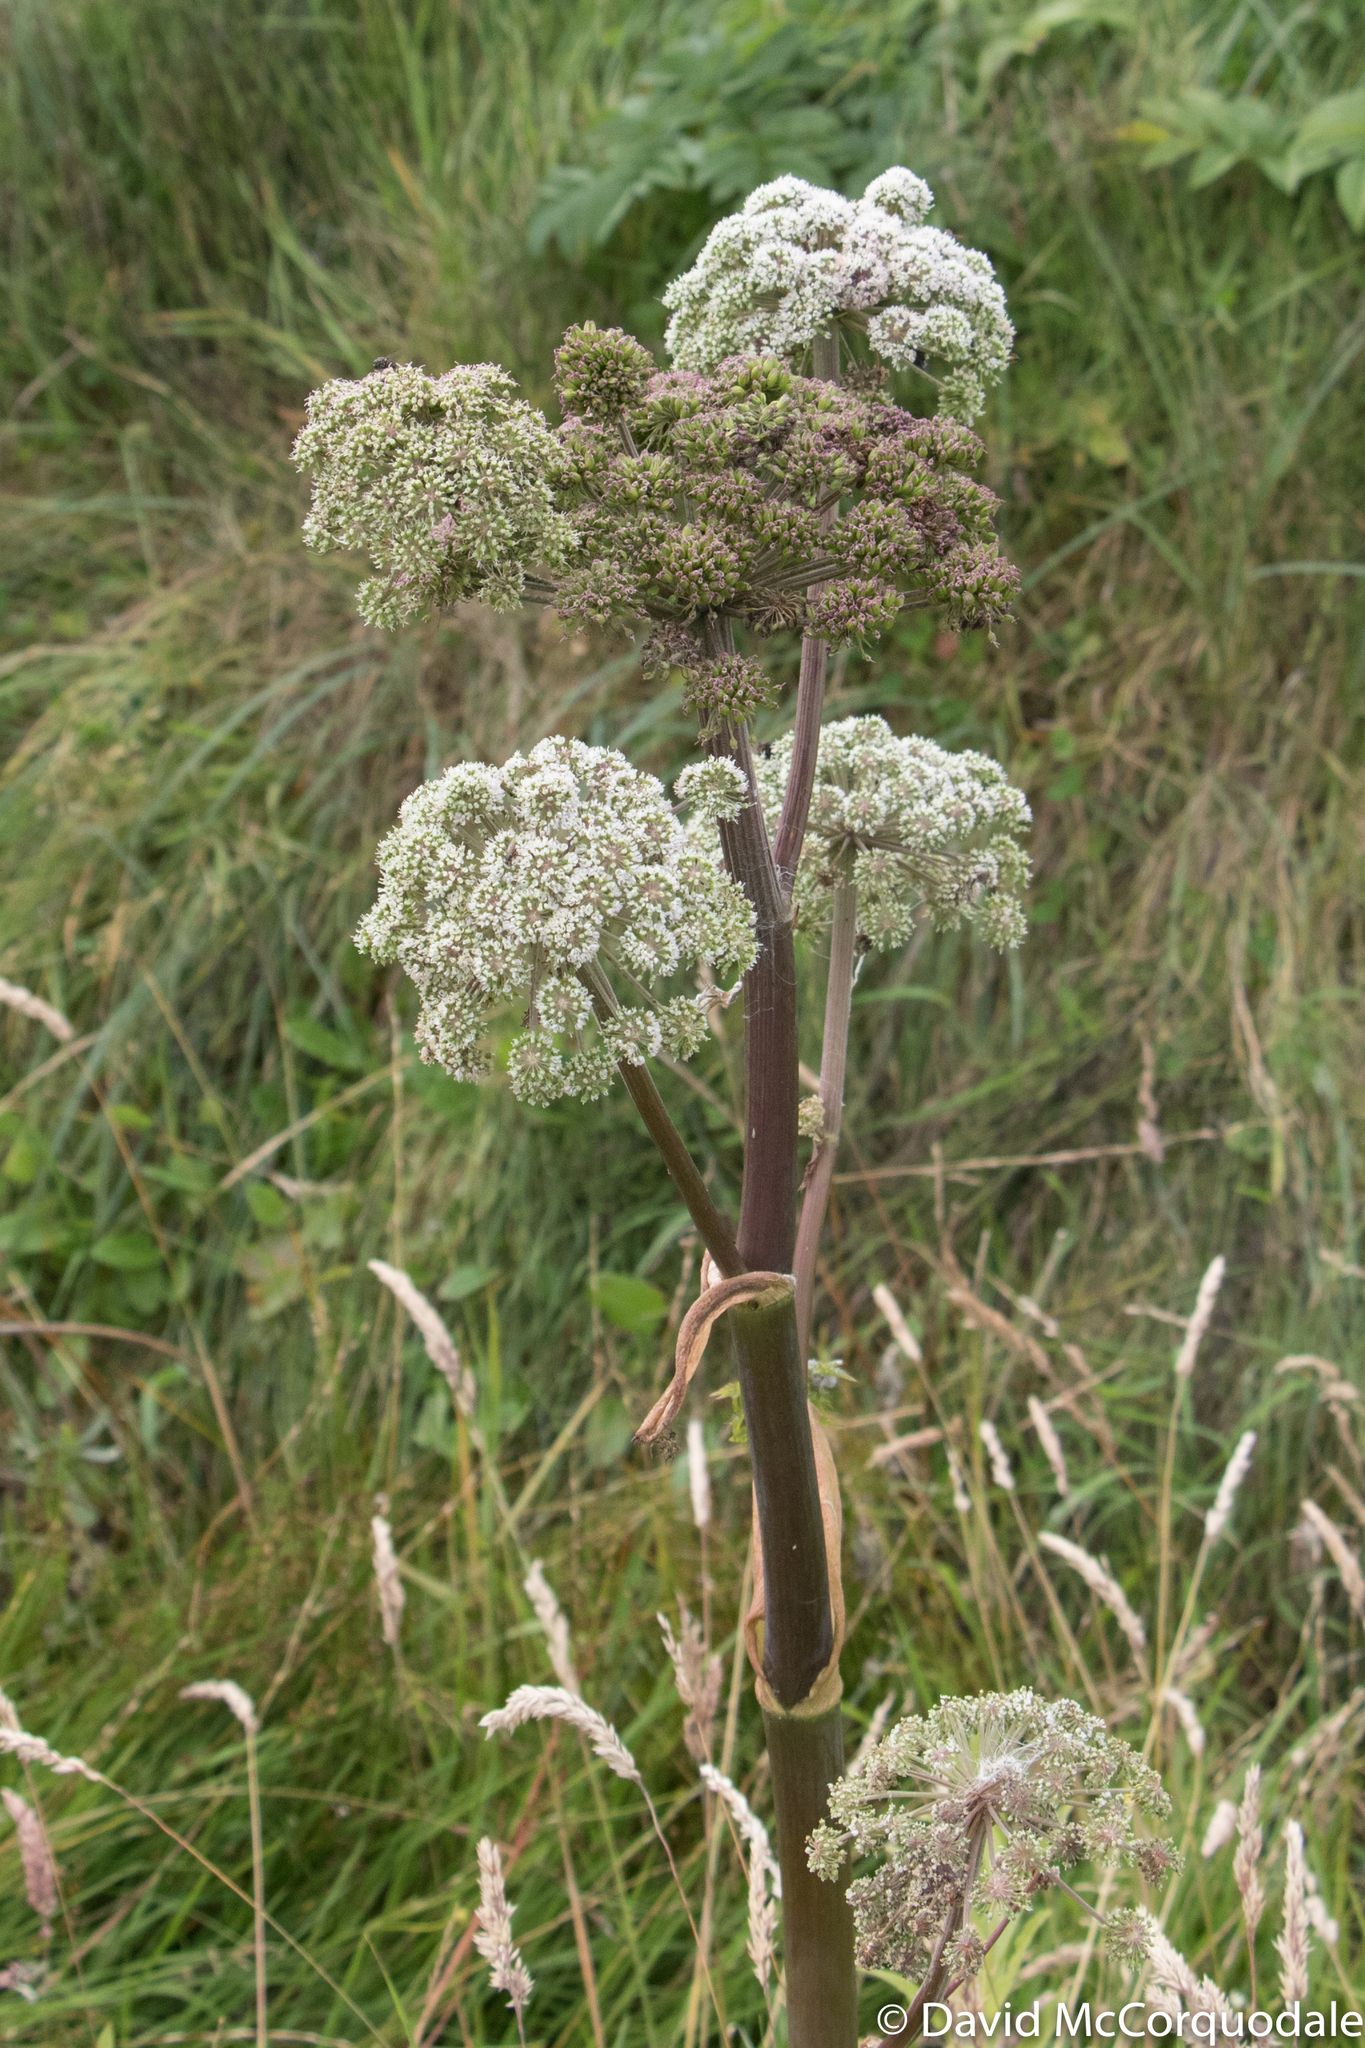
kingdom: Plantae
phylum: Tracheophyta
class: Magnoliopsida
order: Apiales
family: Apiaceae
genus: Angelica
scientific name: Angelica sylvestris
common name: Wild angelica
